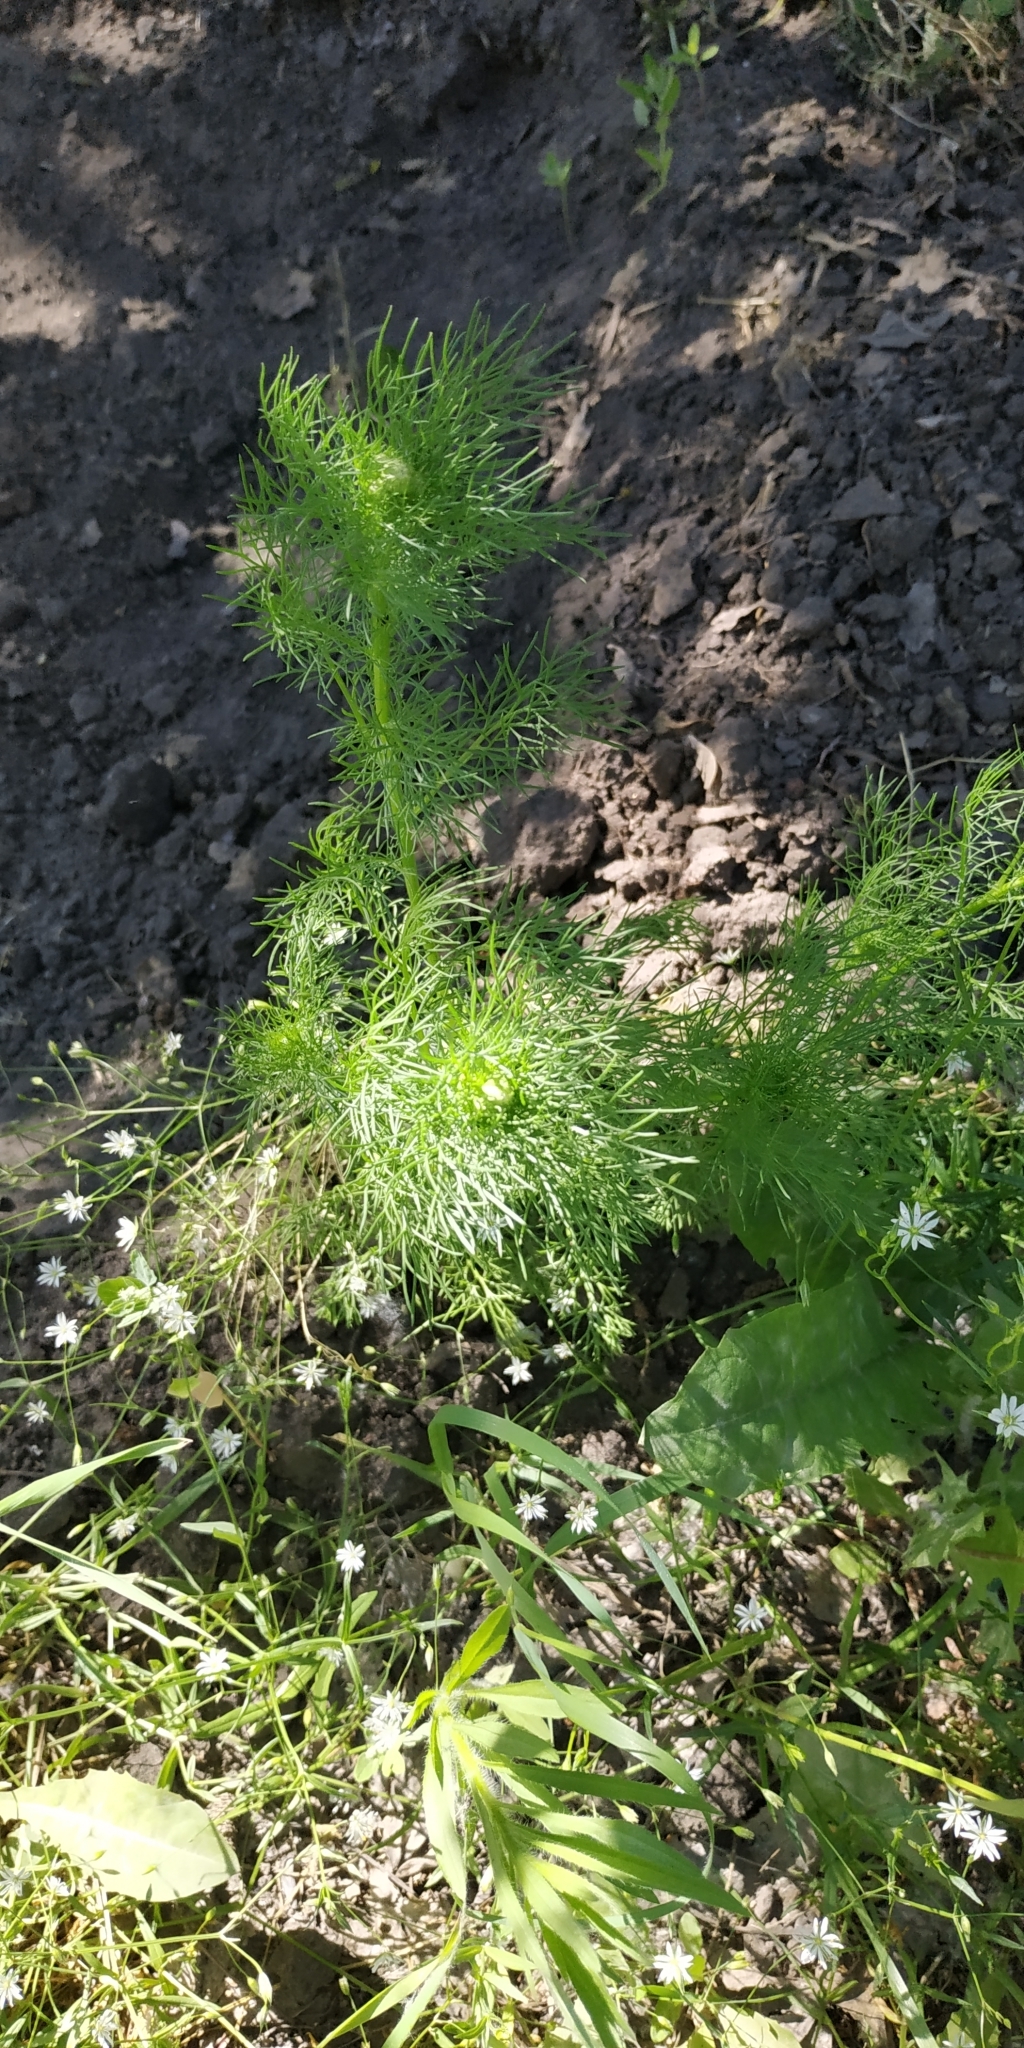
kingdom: Plantae
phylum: Tracheophyta
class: Magnoliopsida
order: Asterales
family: Asteraceae
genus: Tripleurospermum
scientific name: Tripleurospermum inodorum
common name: Scentless mayweed
